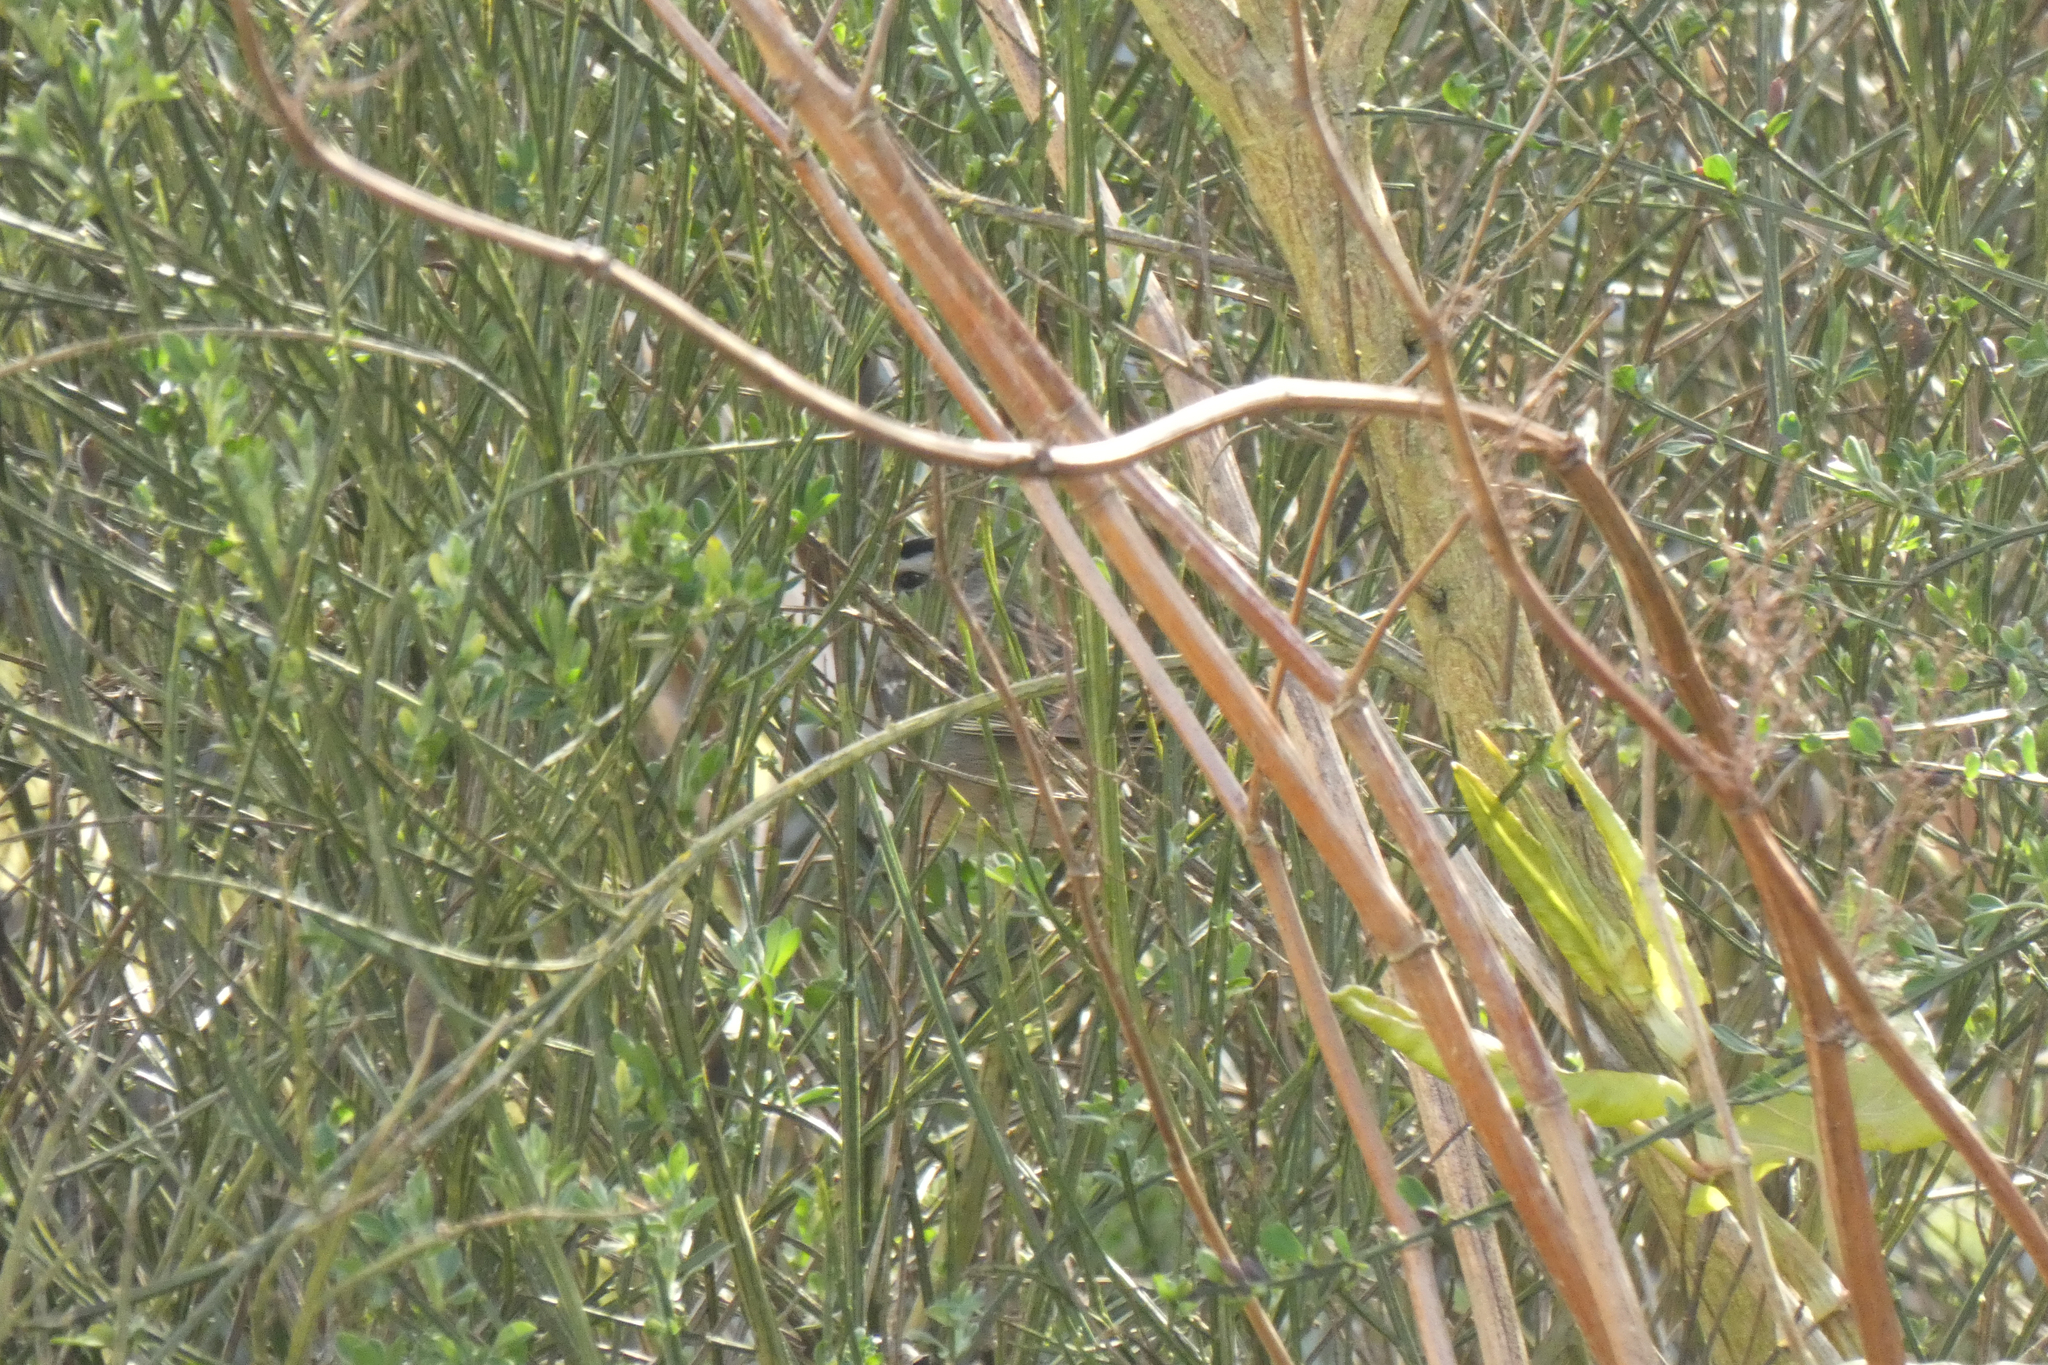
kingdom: Animalia
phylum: Chordata
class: Aves
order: Passeriformes
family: Passerellidae
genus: Zonotrichia
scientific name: Zonotrichia leucophrys
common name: White-crowned sparrow
